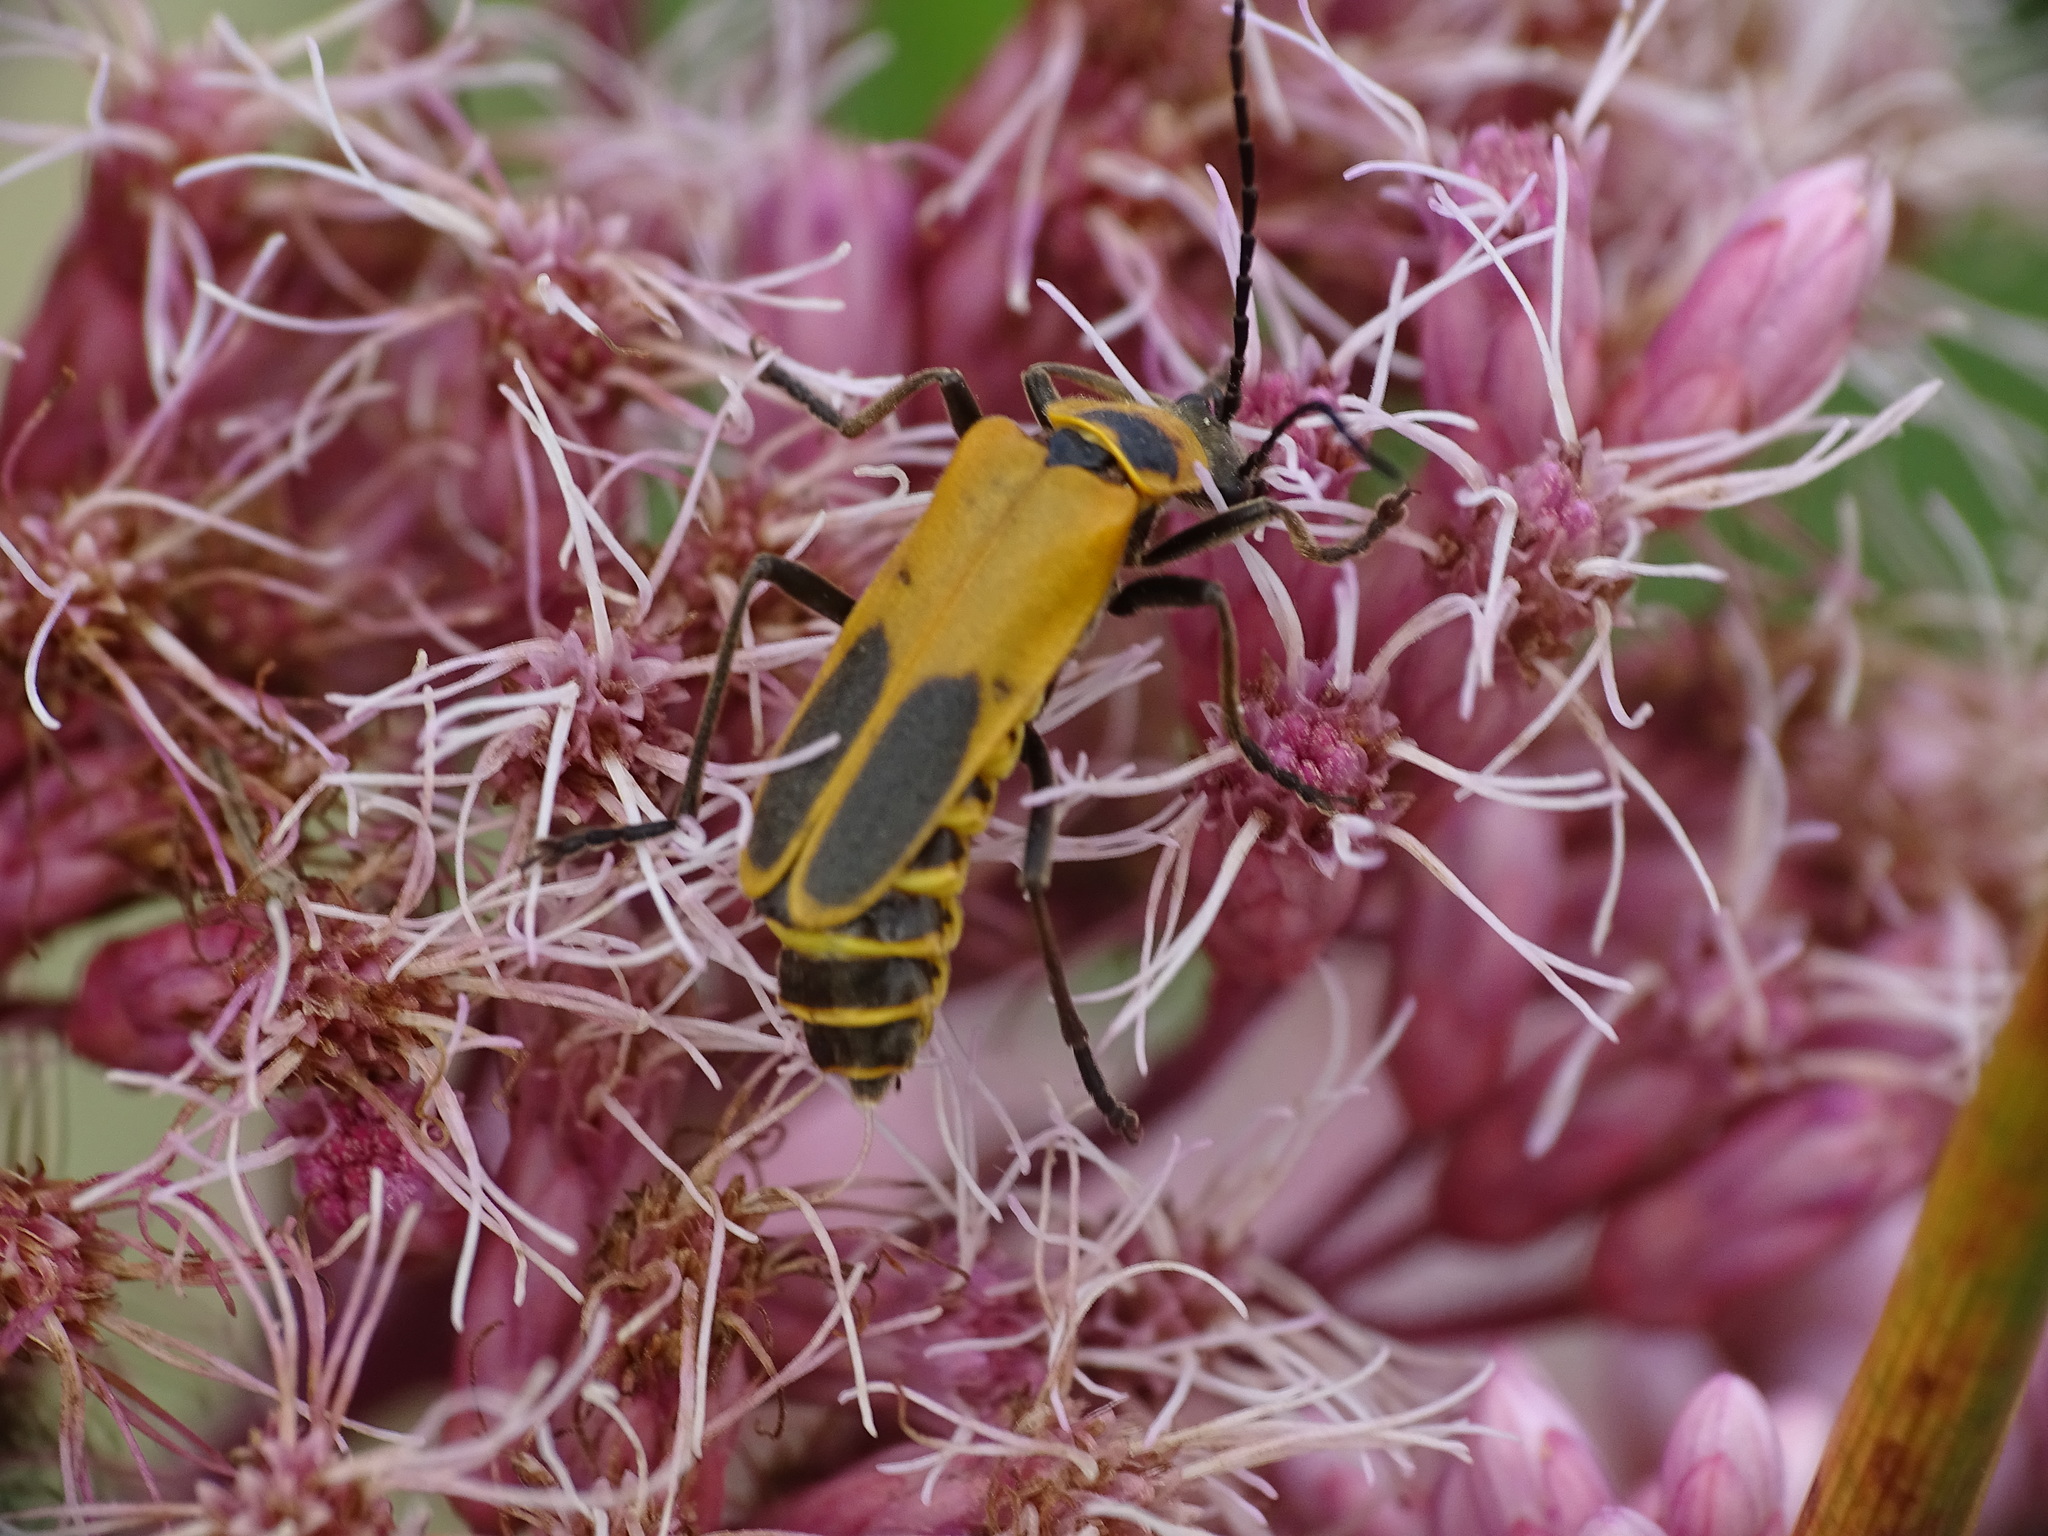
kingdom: Animalia
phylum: Arthropoda
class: Insecta
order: Coleoptera
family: Cantharidae
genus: Chauliognathus
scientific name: Chauliognathus pensylvanicus
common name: Goldenrod soldier beetle
